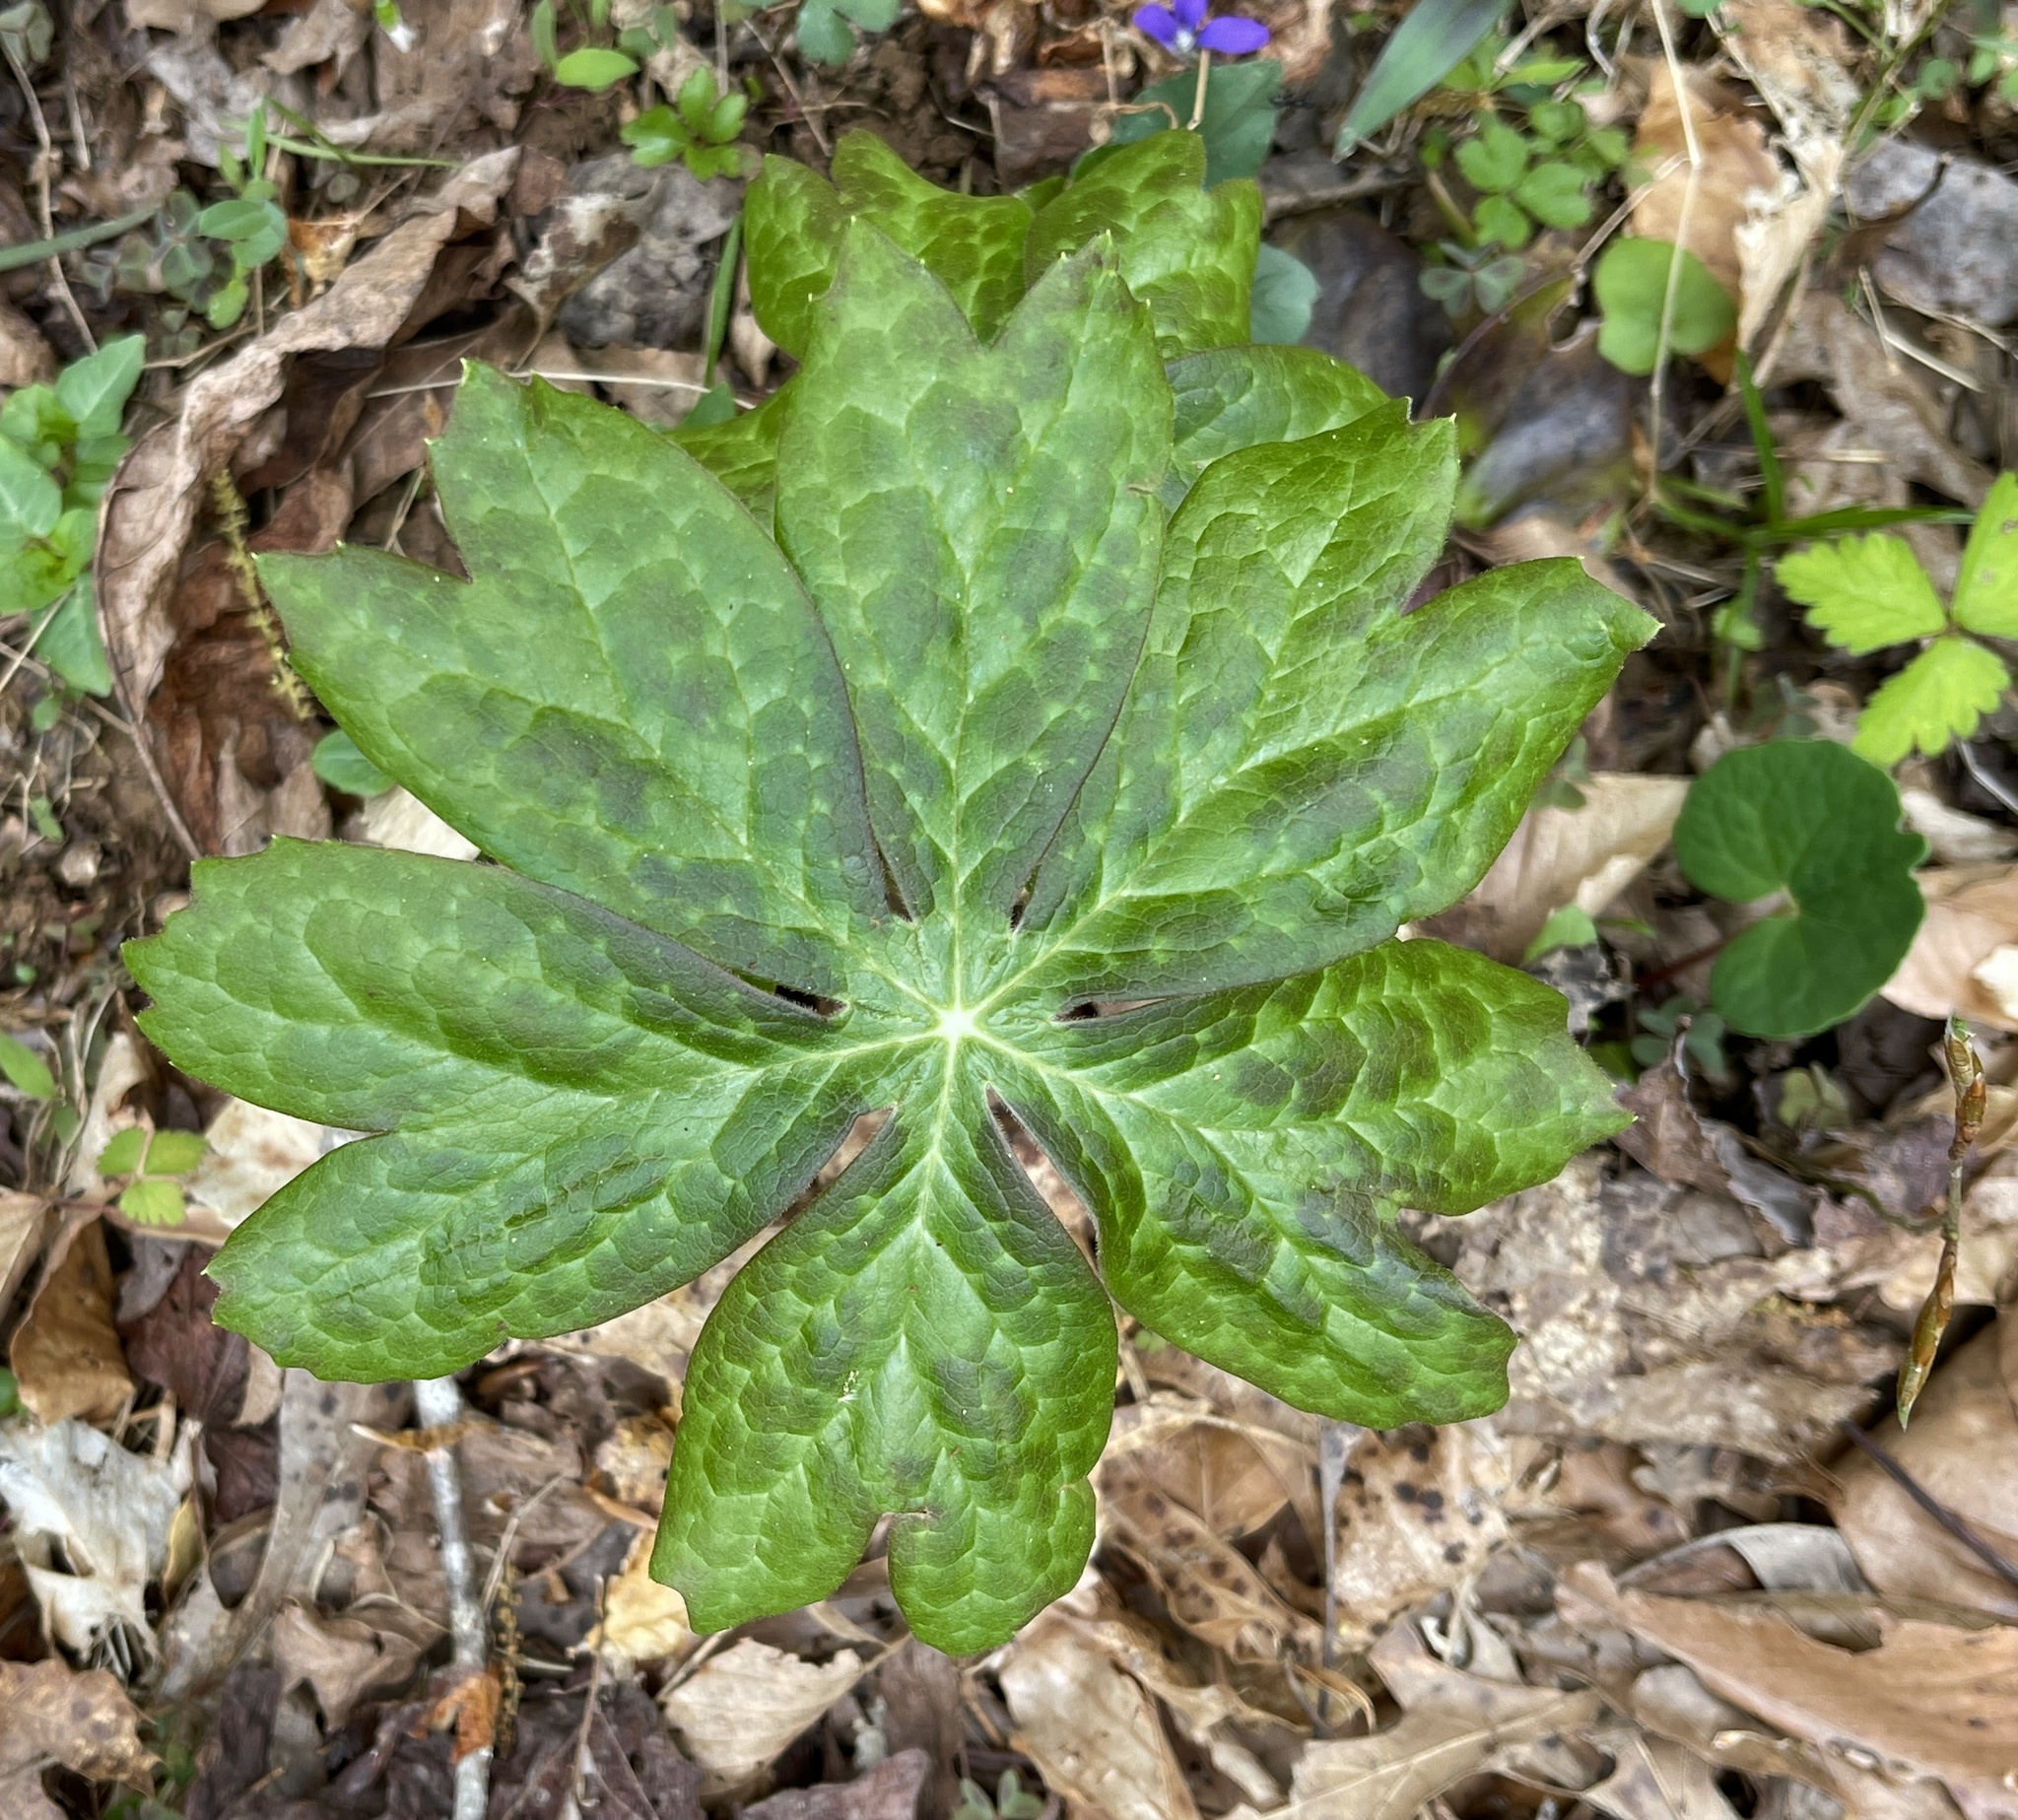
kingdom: Plantae
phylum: Tracheophyta
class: Magnoliopsida
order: Ranunculales
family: Berberidaceae
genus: Podophyllum
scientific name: Podophyllum peltatum
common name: Wild mandrake
